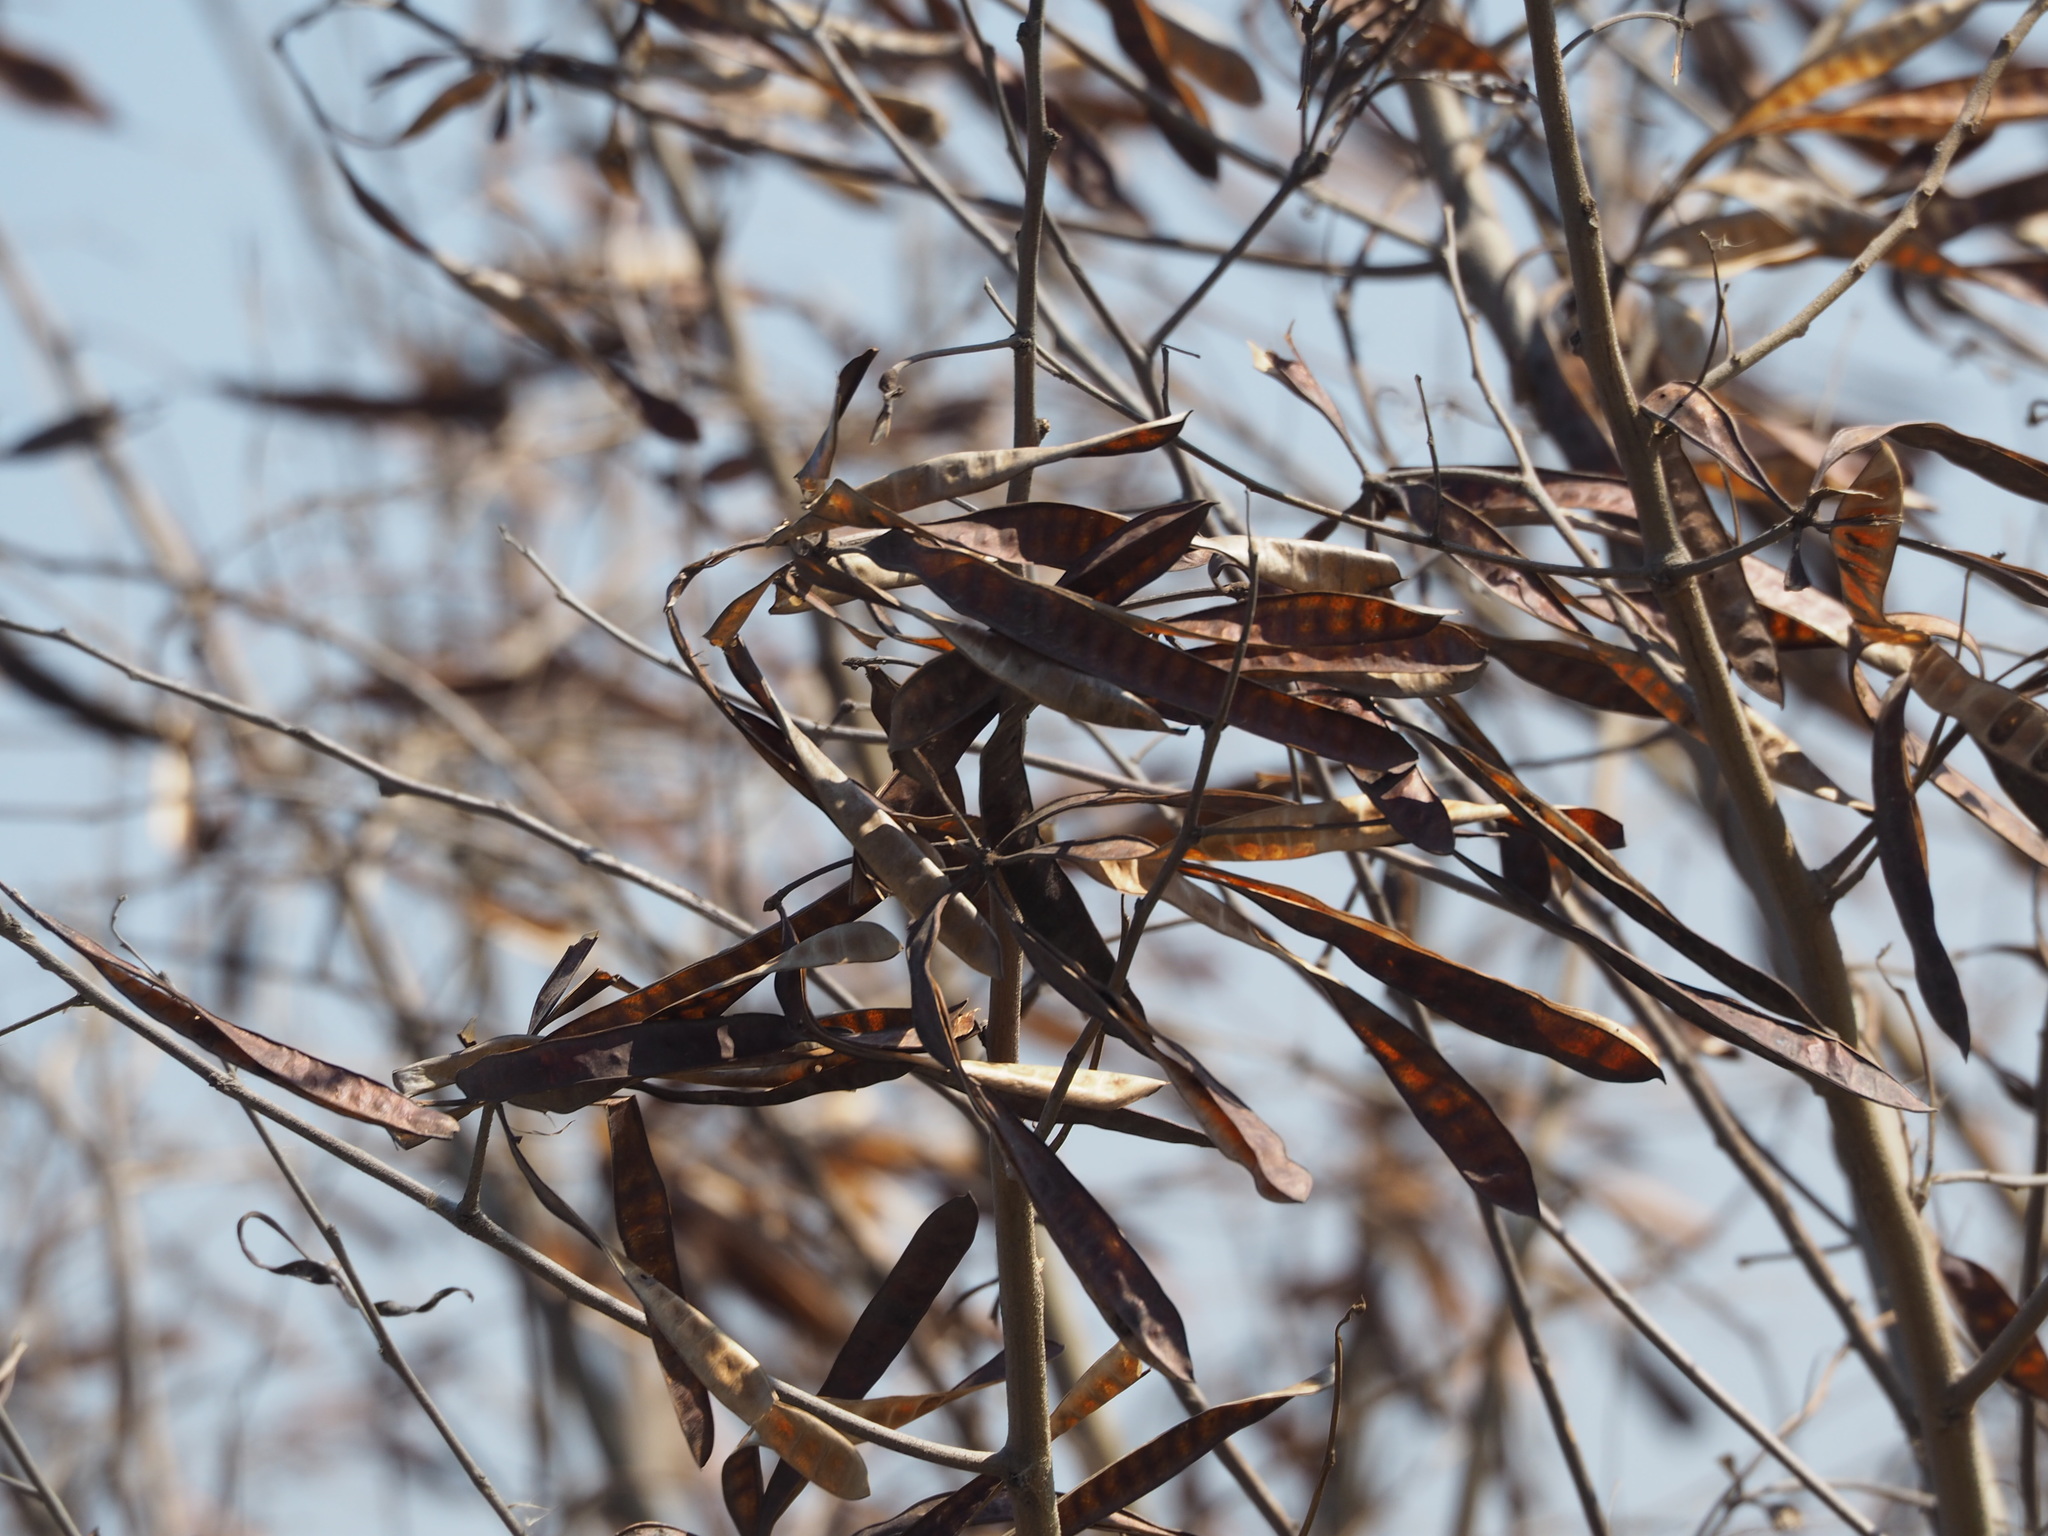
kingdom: Plantae
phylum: Tracheophyta
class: Magnoliopsida
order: Fabales
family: Fabaceae
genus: Leucaena
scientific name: Leucaena leucocephala
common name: White leadtree
